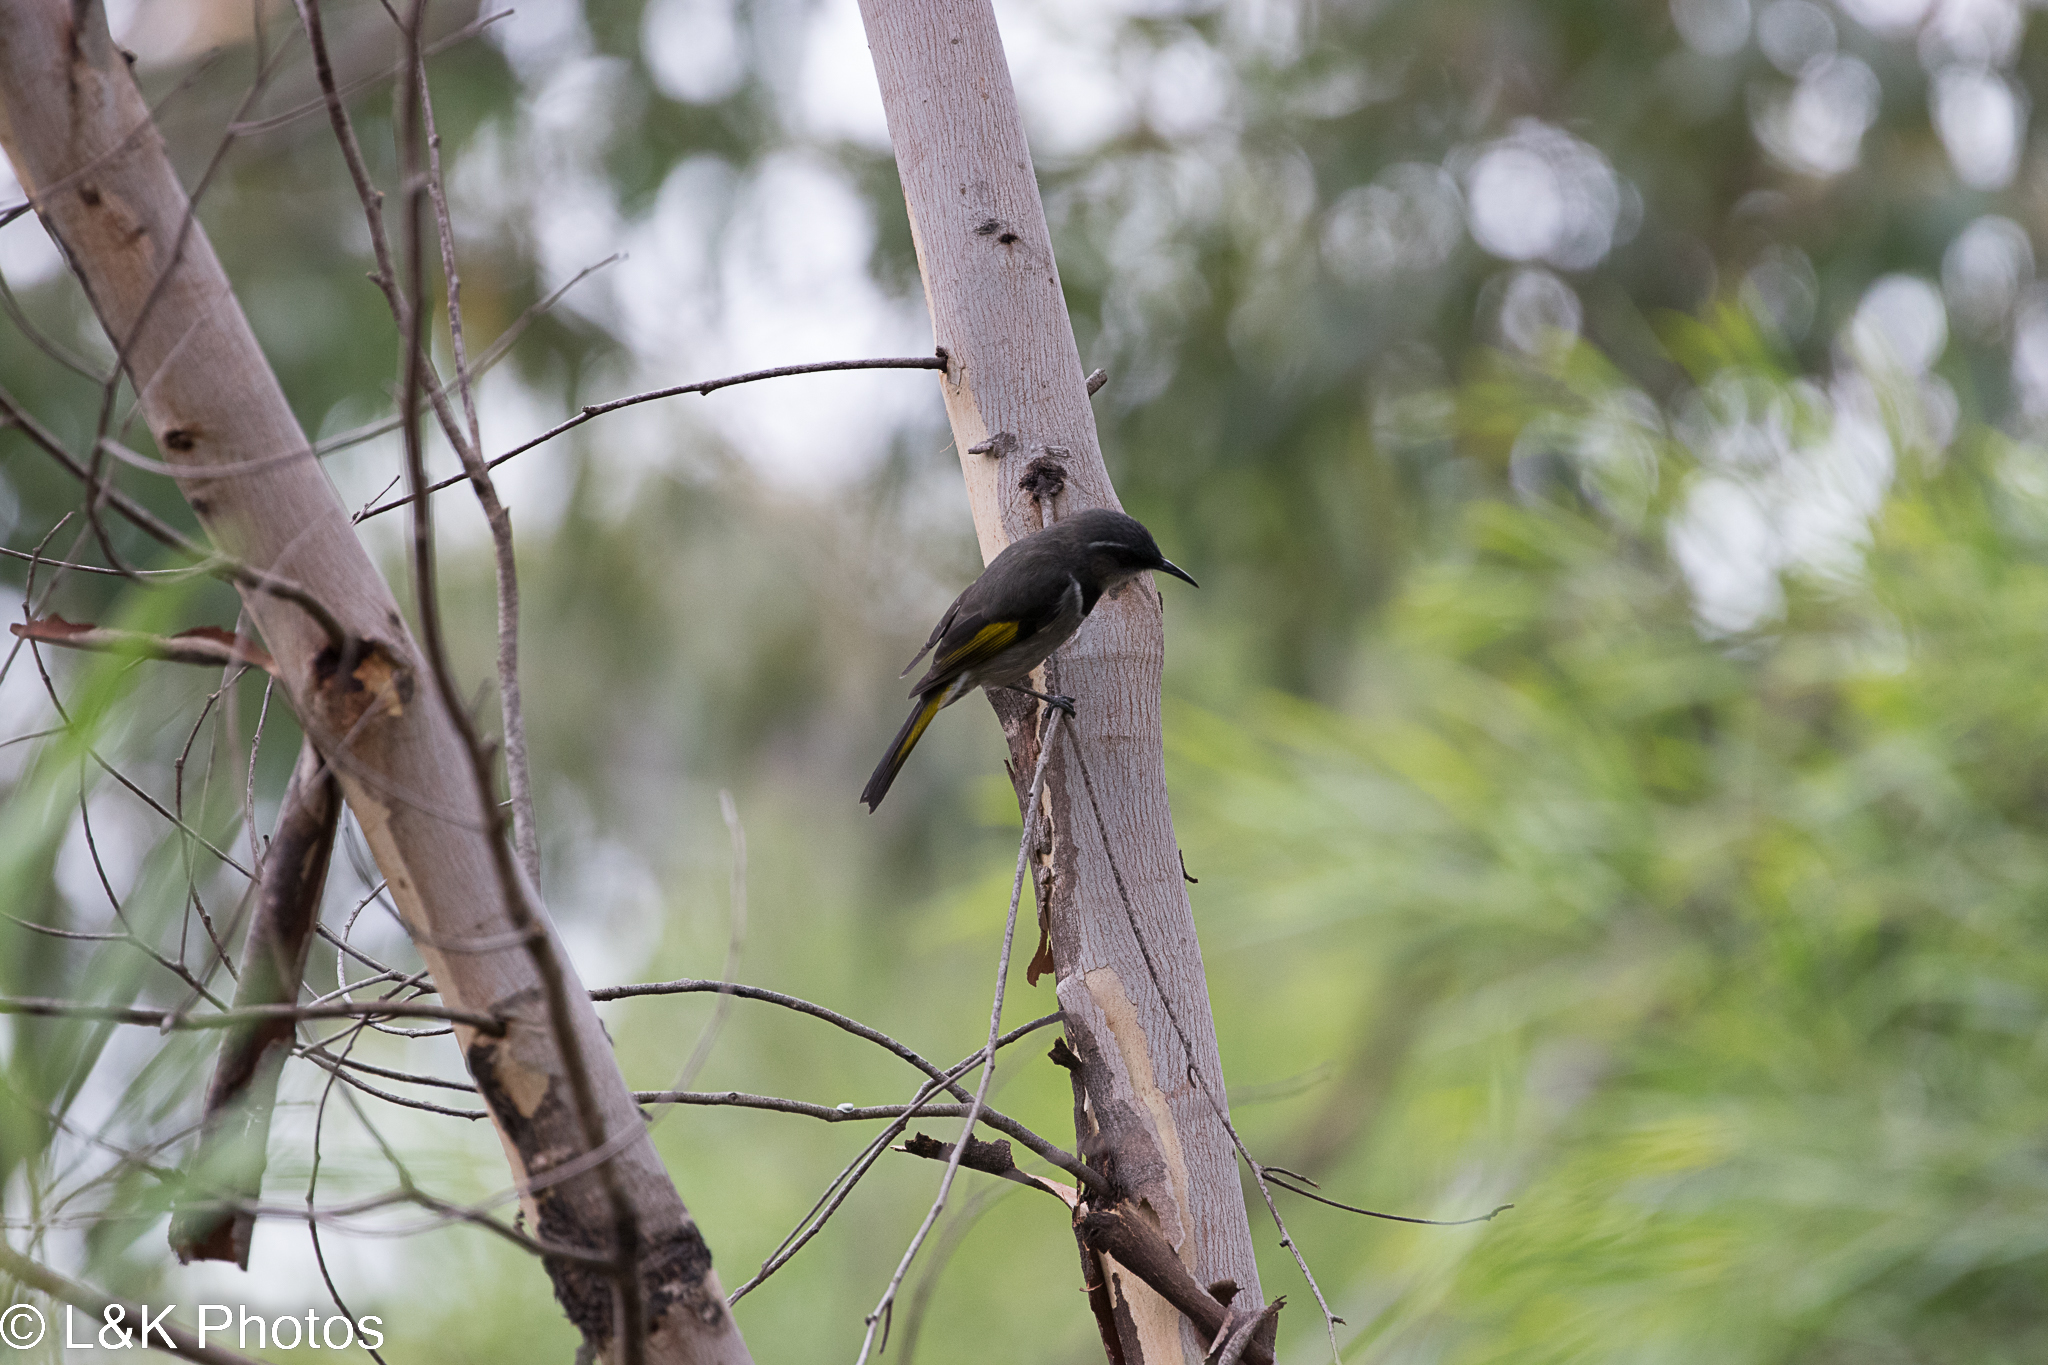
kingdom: Animalia
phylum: Chordata
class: Aves
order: Passeriformes
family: Meliphagidae
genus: Phylidonyris
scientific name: Phylidonyris pyrrhopterus
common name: Crescent honeyeater
